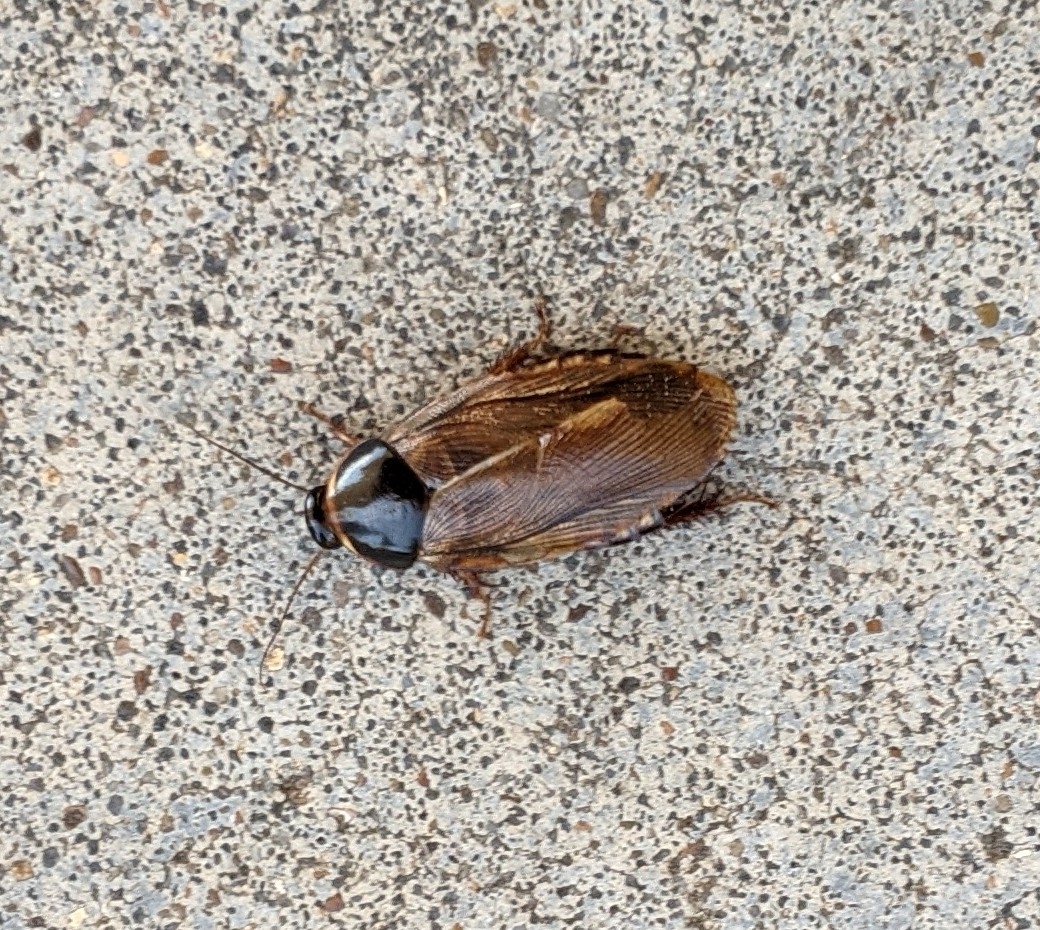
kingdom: Animalia
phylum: Arthropoda
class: Insecta
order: Blattodea
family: Blaberidae
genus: Pycnoscelus
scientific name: Pycnoscelus surinamensis
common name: Surinam cockroach
